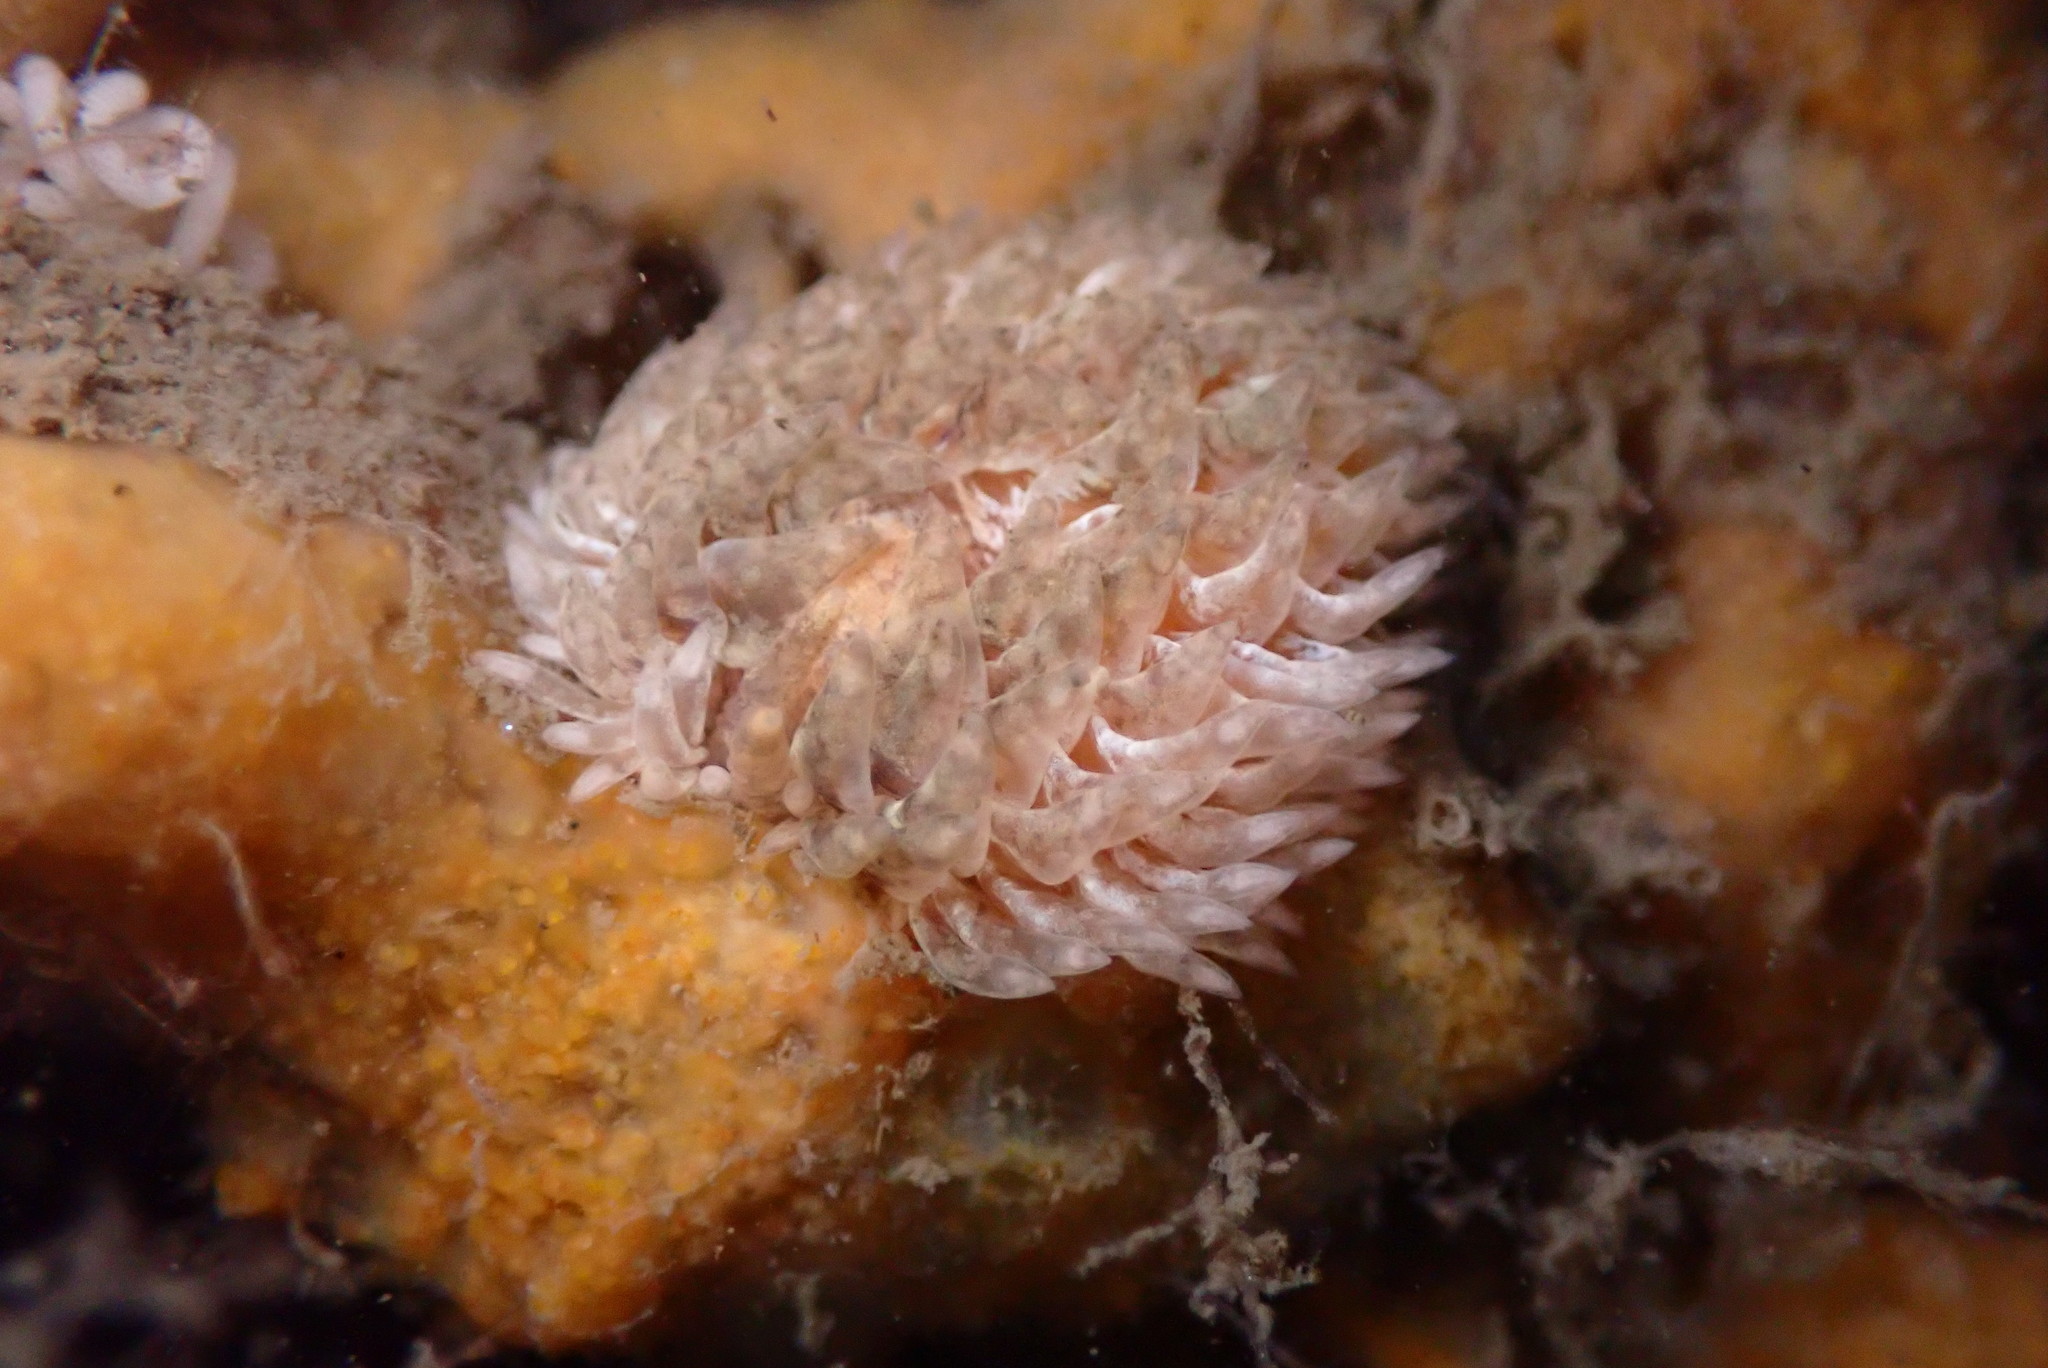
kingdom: Animalia
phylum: Mollusca
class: Gastropoda
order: Nudibranchia
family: Aeolidiidae
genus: Aeolidia
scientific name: Aeolidia loui
